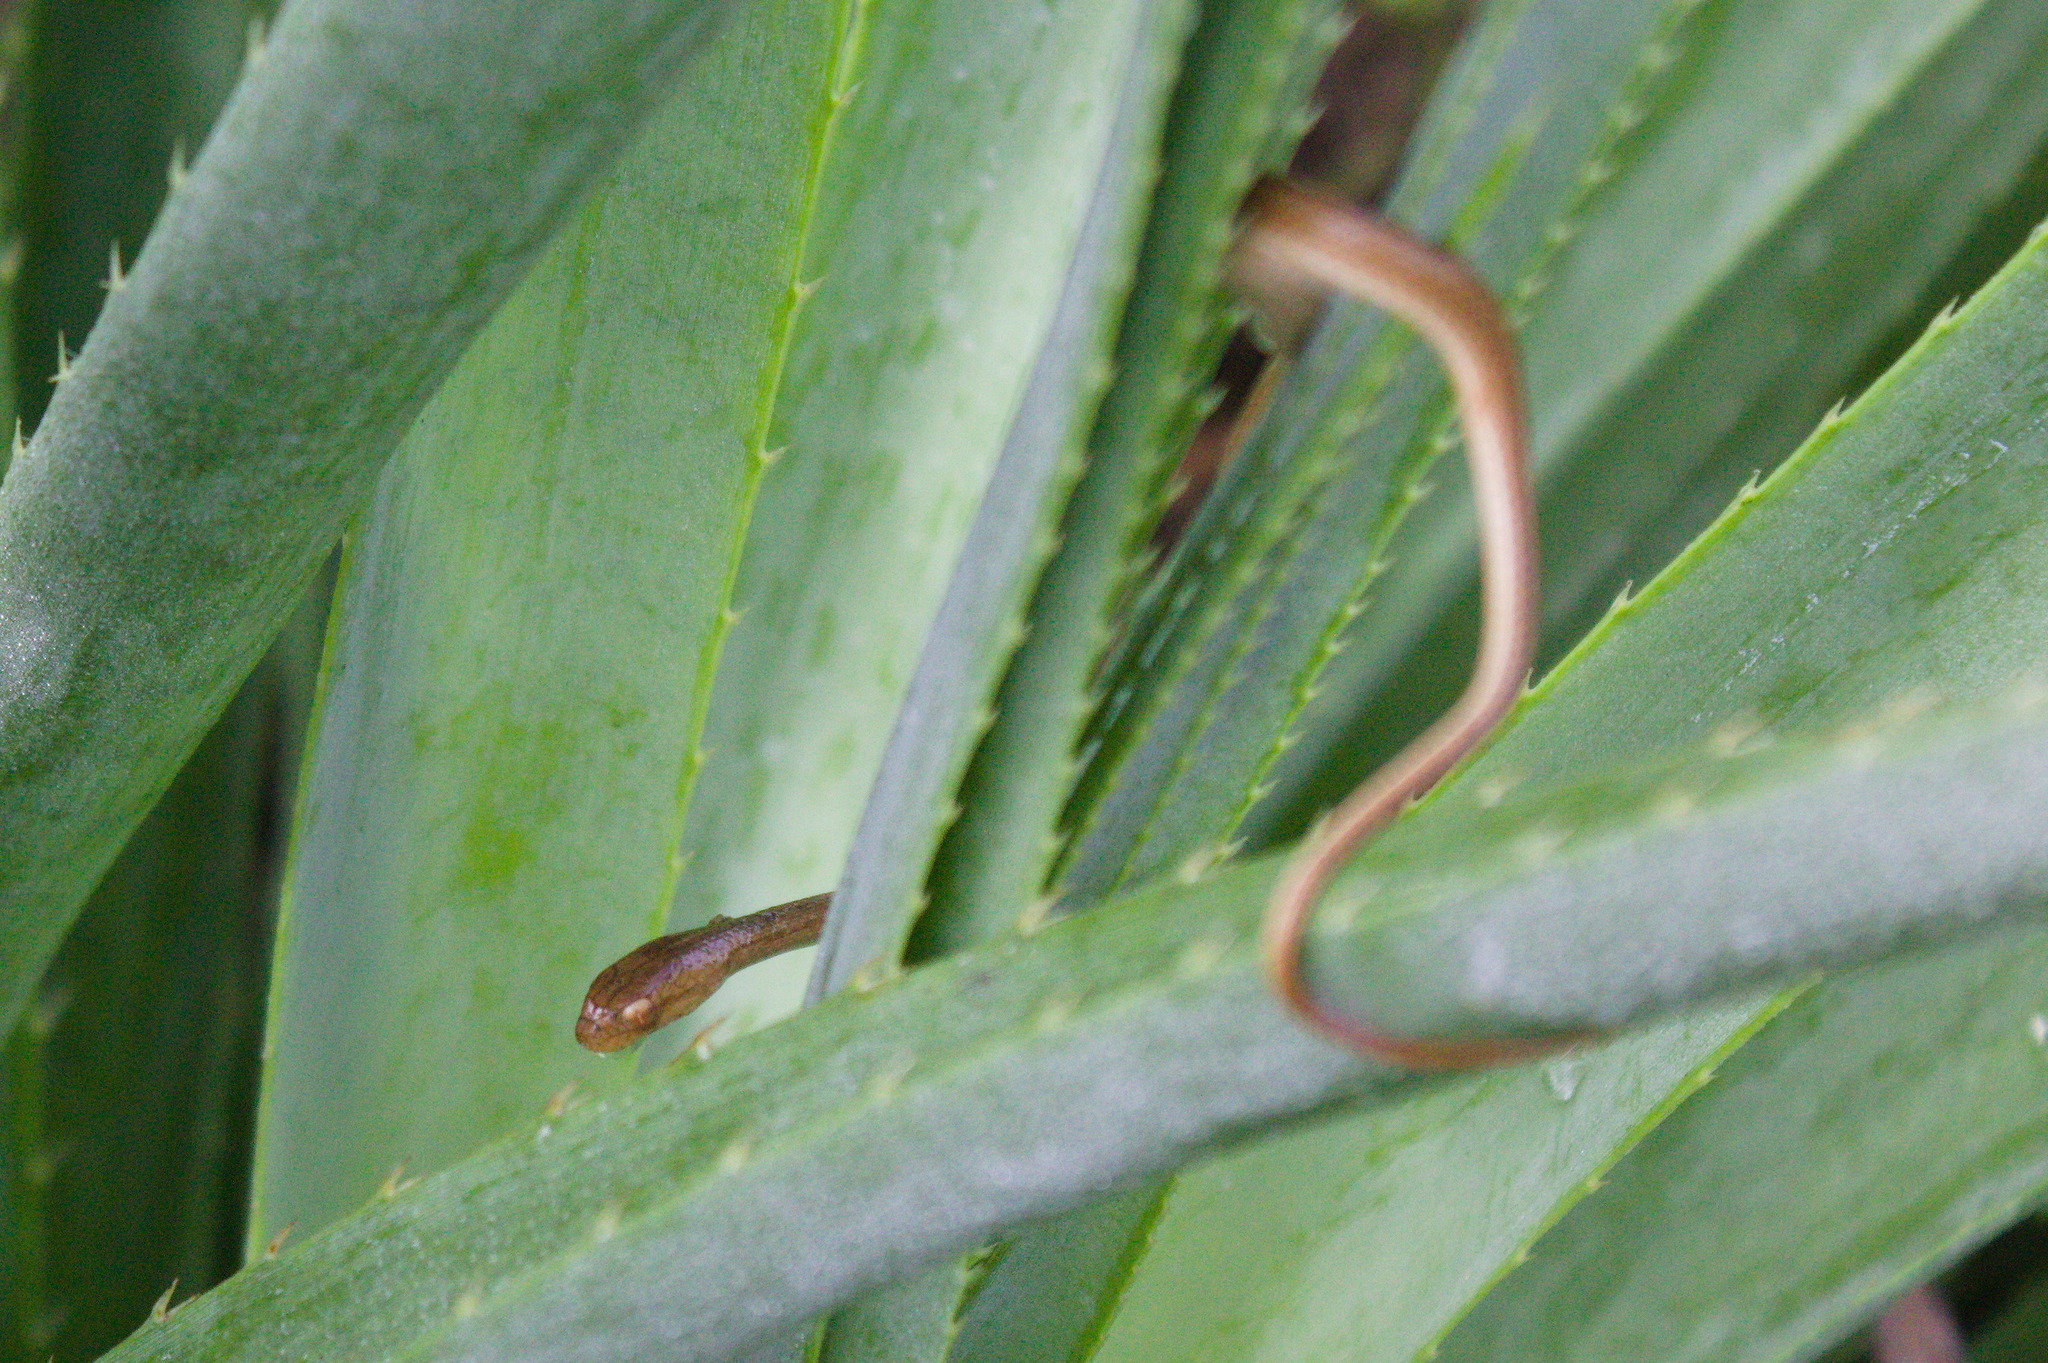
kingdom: Animalia
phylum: Chordata
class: Squamata
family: Colubridae
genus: Dryophylax
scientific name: Dryophylax
